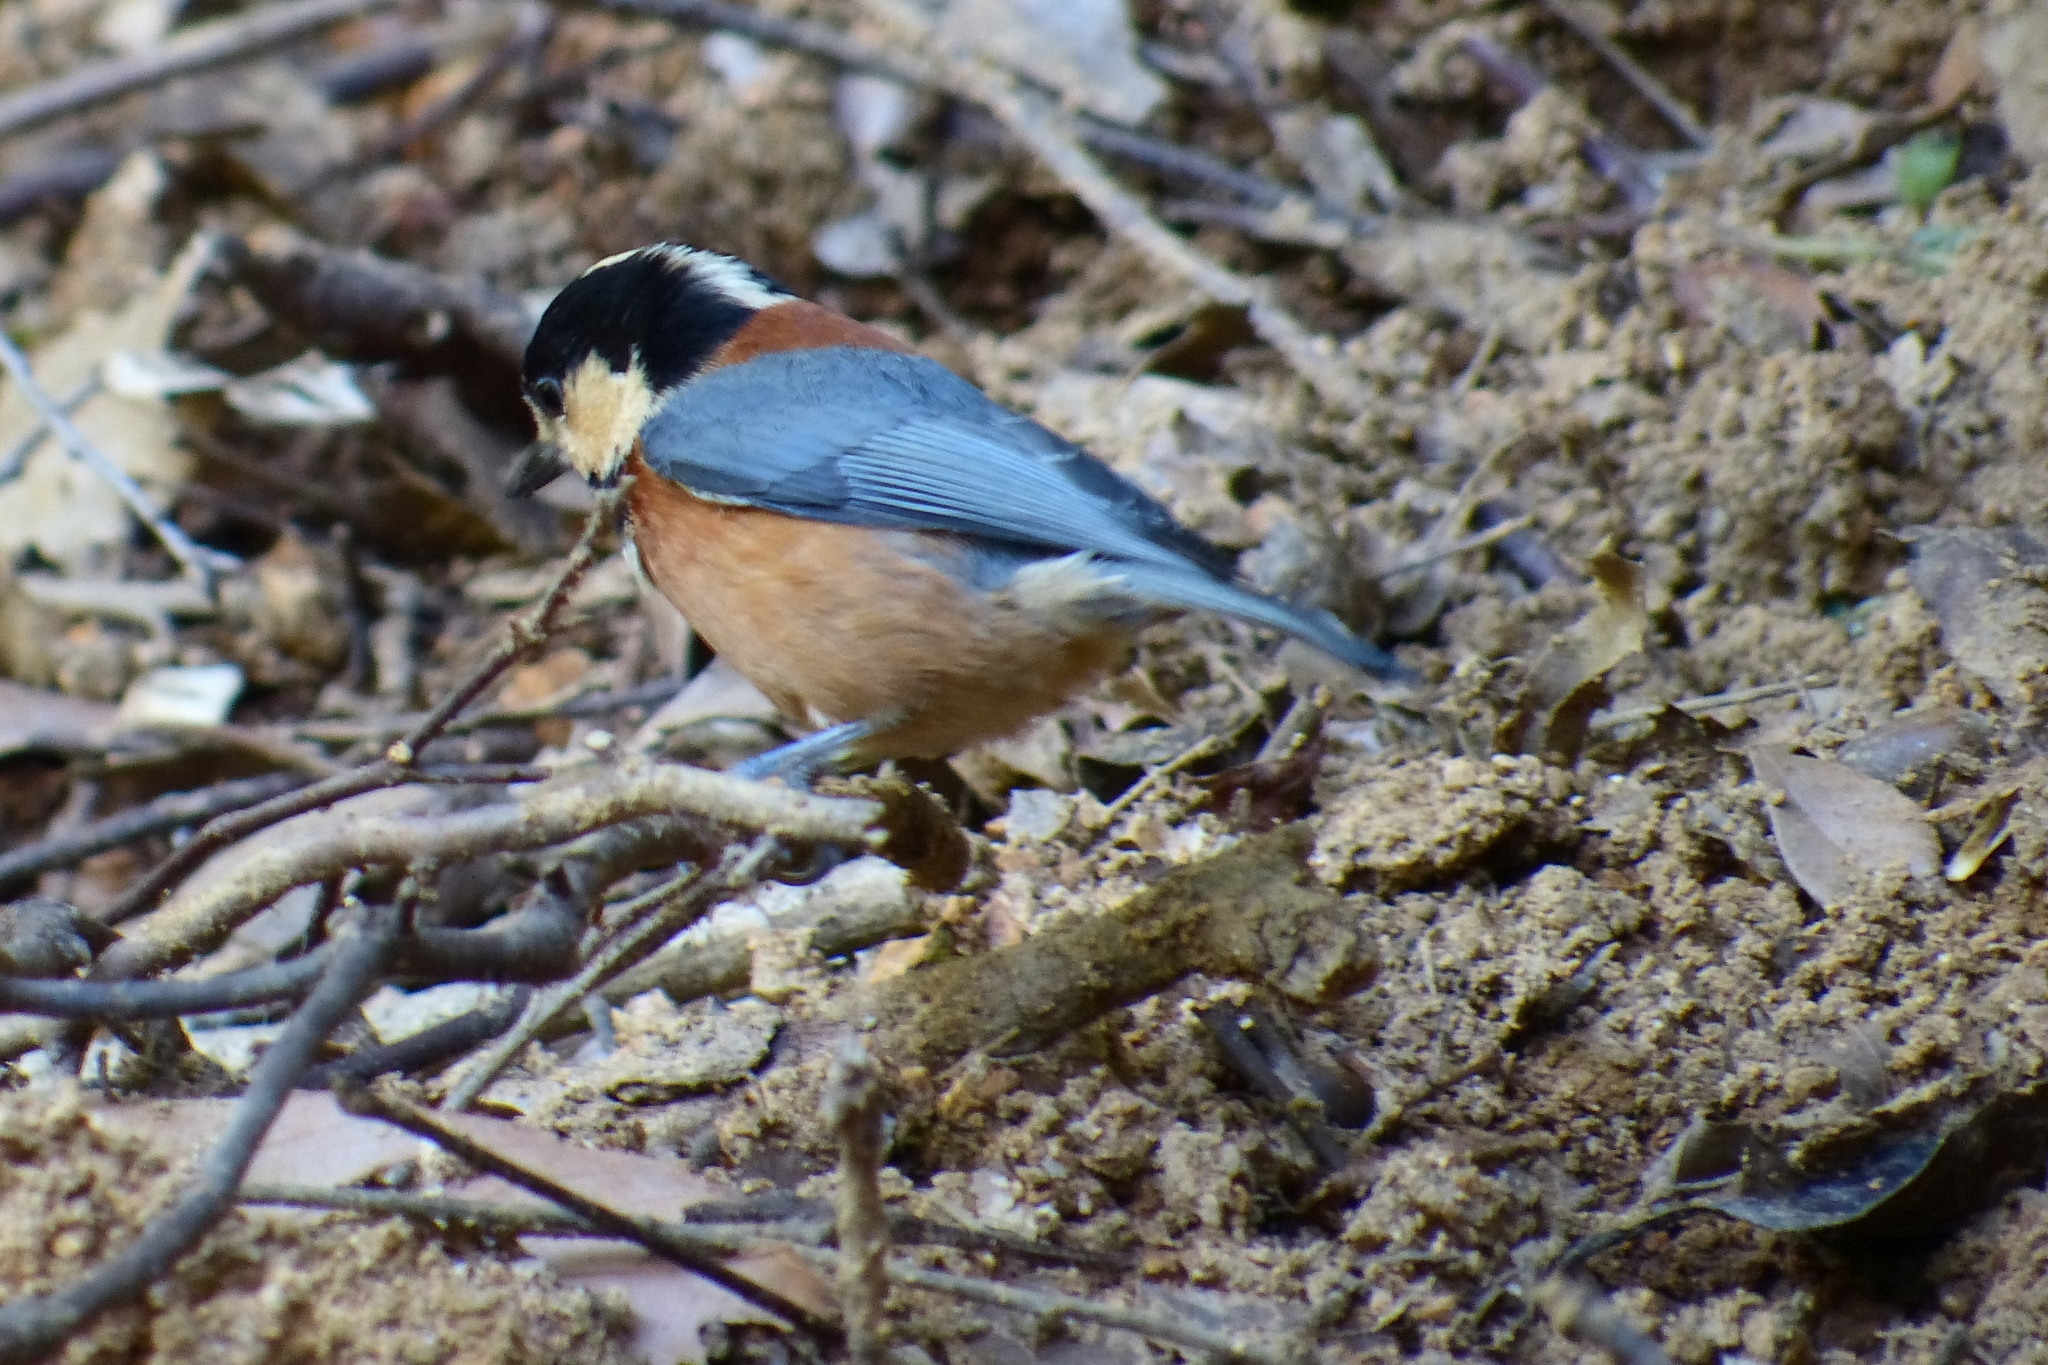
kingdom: Animalia
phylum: Chordata
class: Aves
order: Passeriformes
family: Paridae
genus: Poecile
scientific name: Poecile varius
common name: Varied tit
